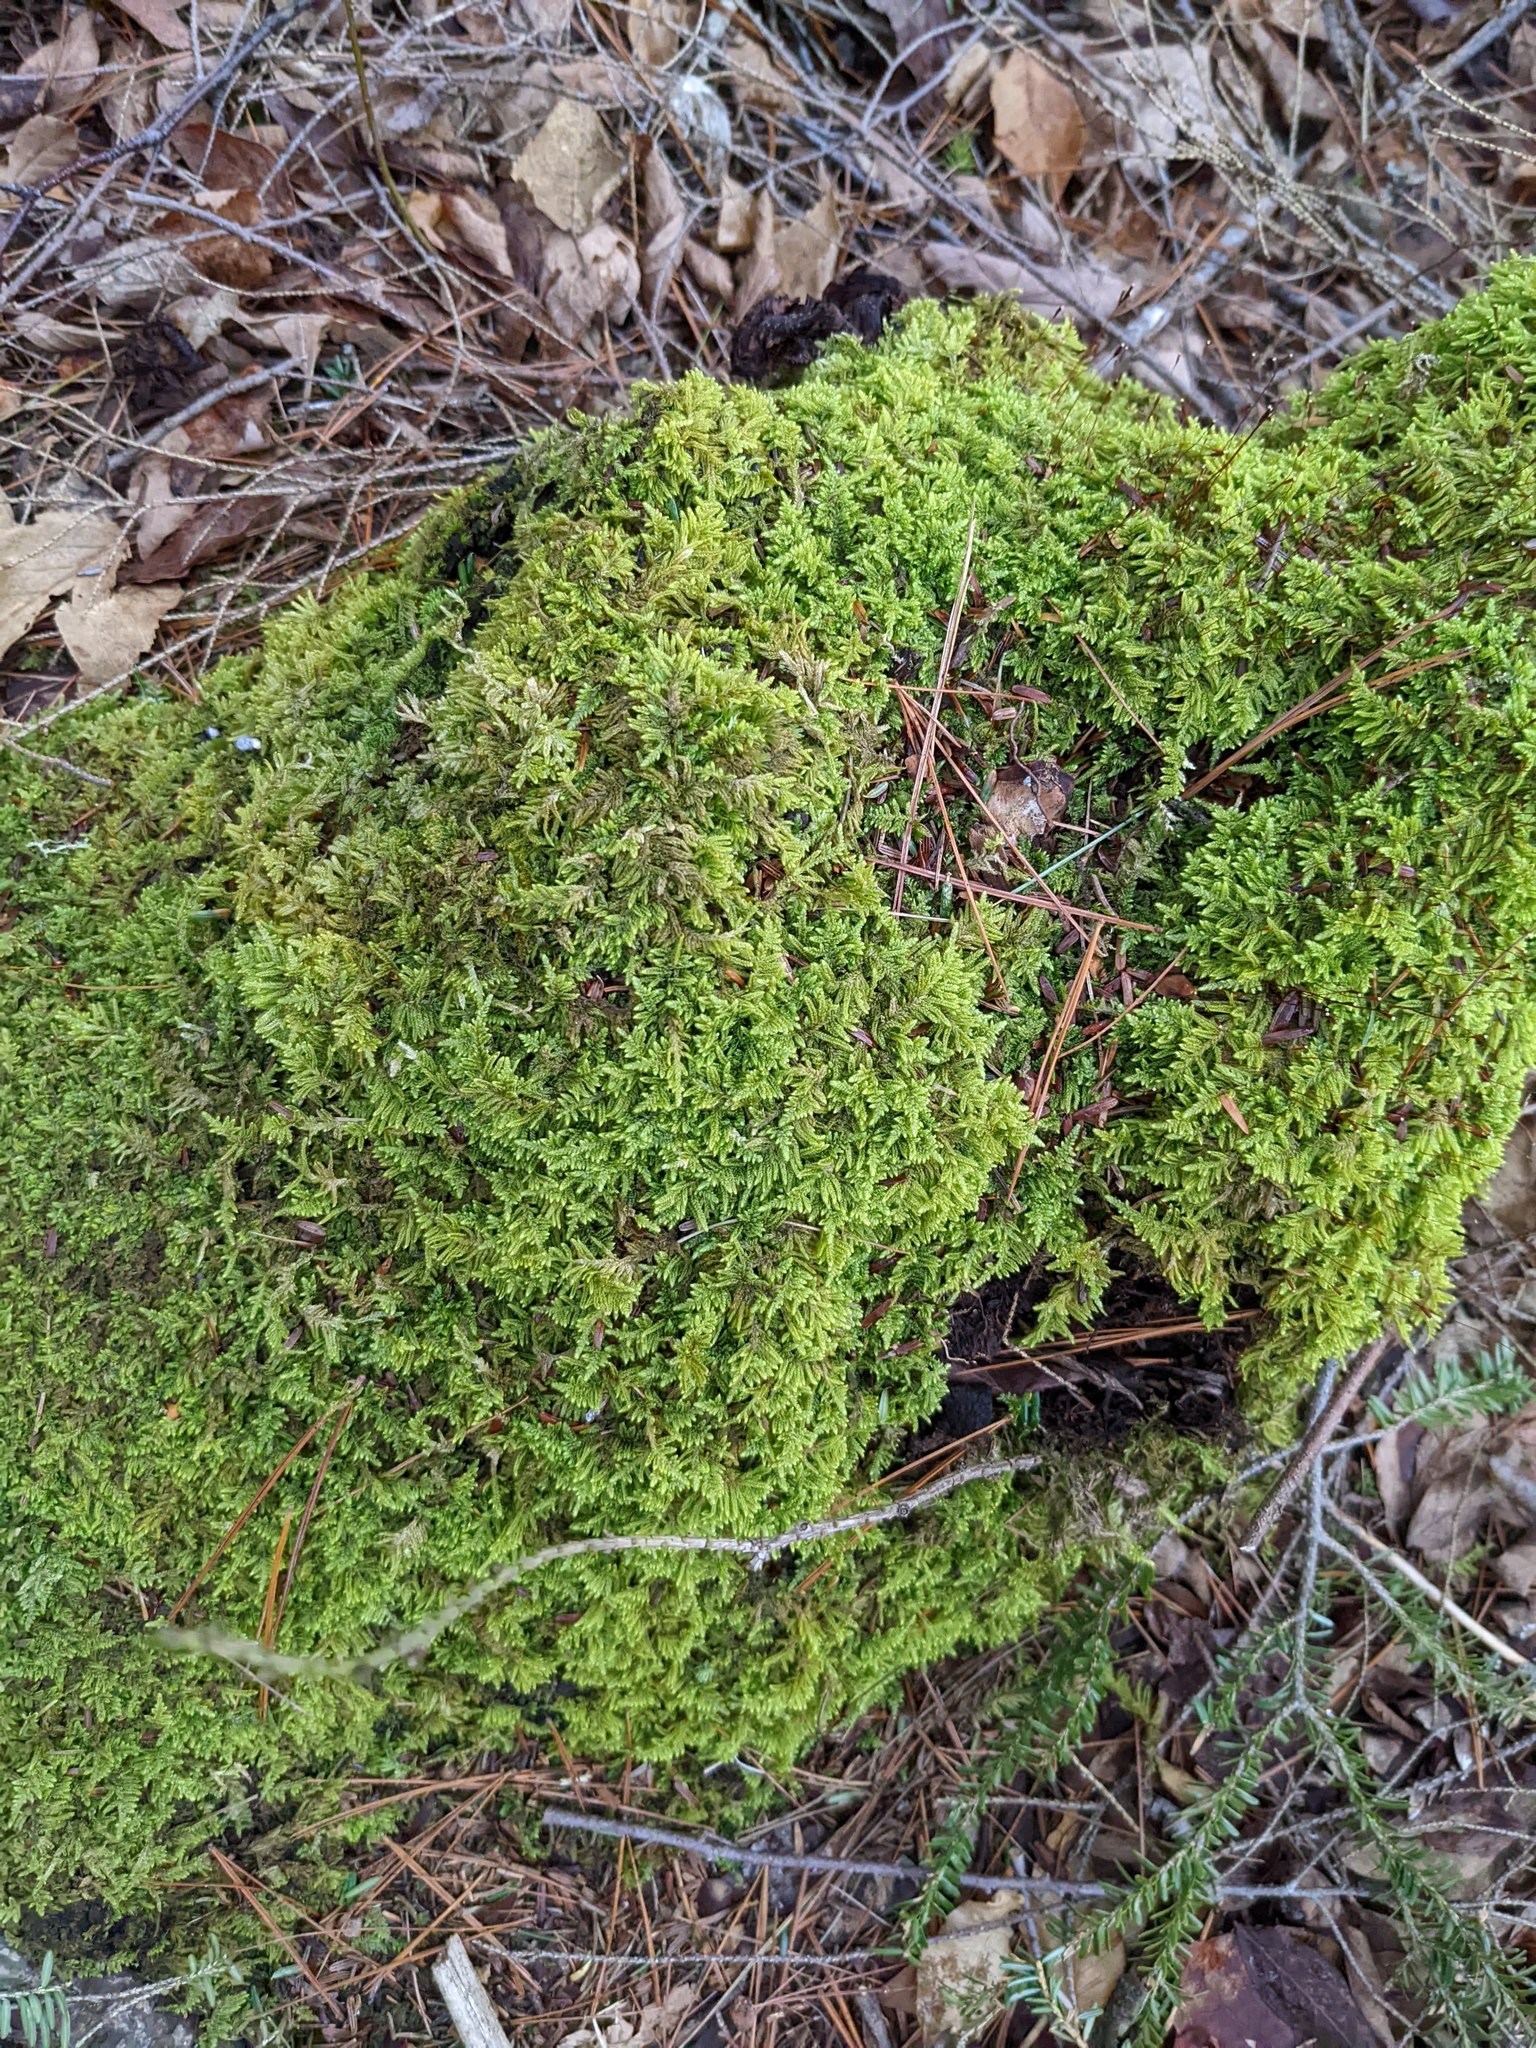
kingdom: Plantae
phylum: Bryophyta
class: Bryopsida
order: Hypnales
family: Callicladiaceae
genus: Callicladium
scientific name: Callicladium imponens
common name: Brocade moss
